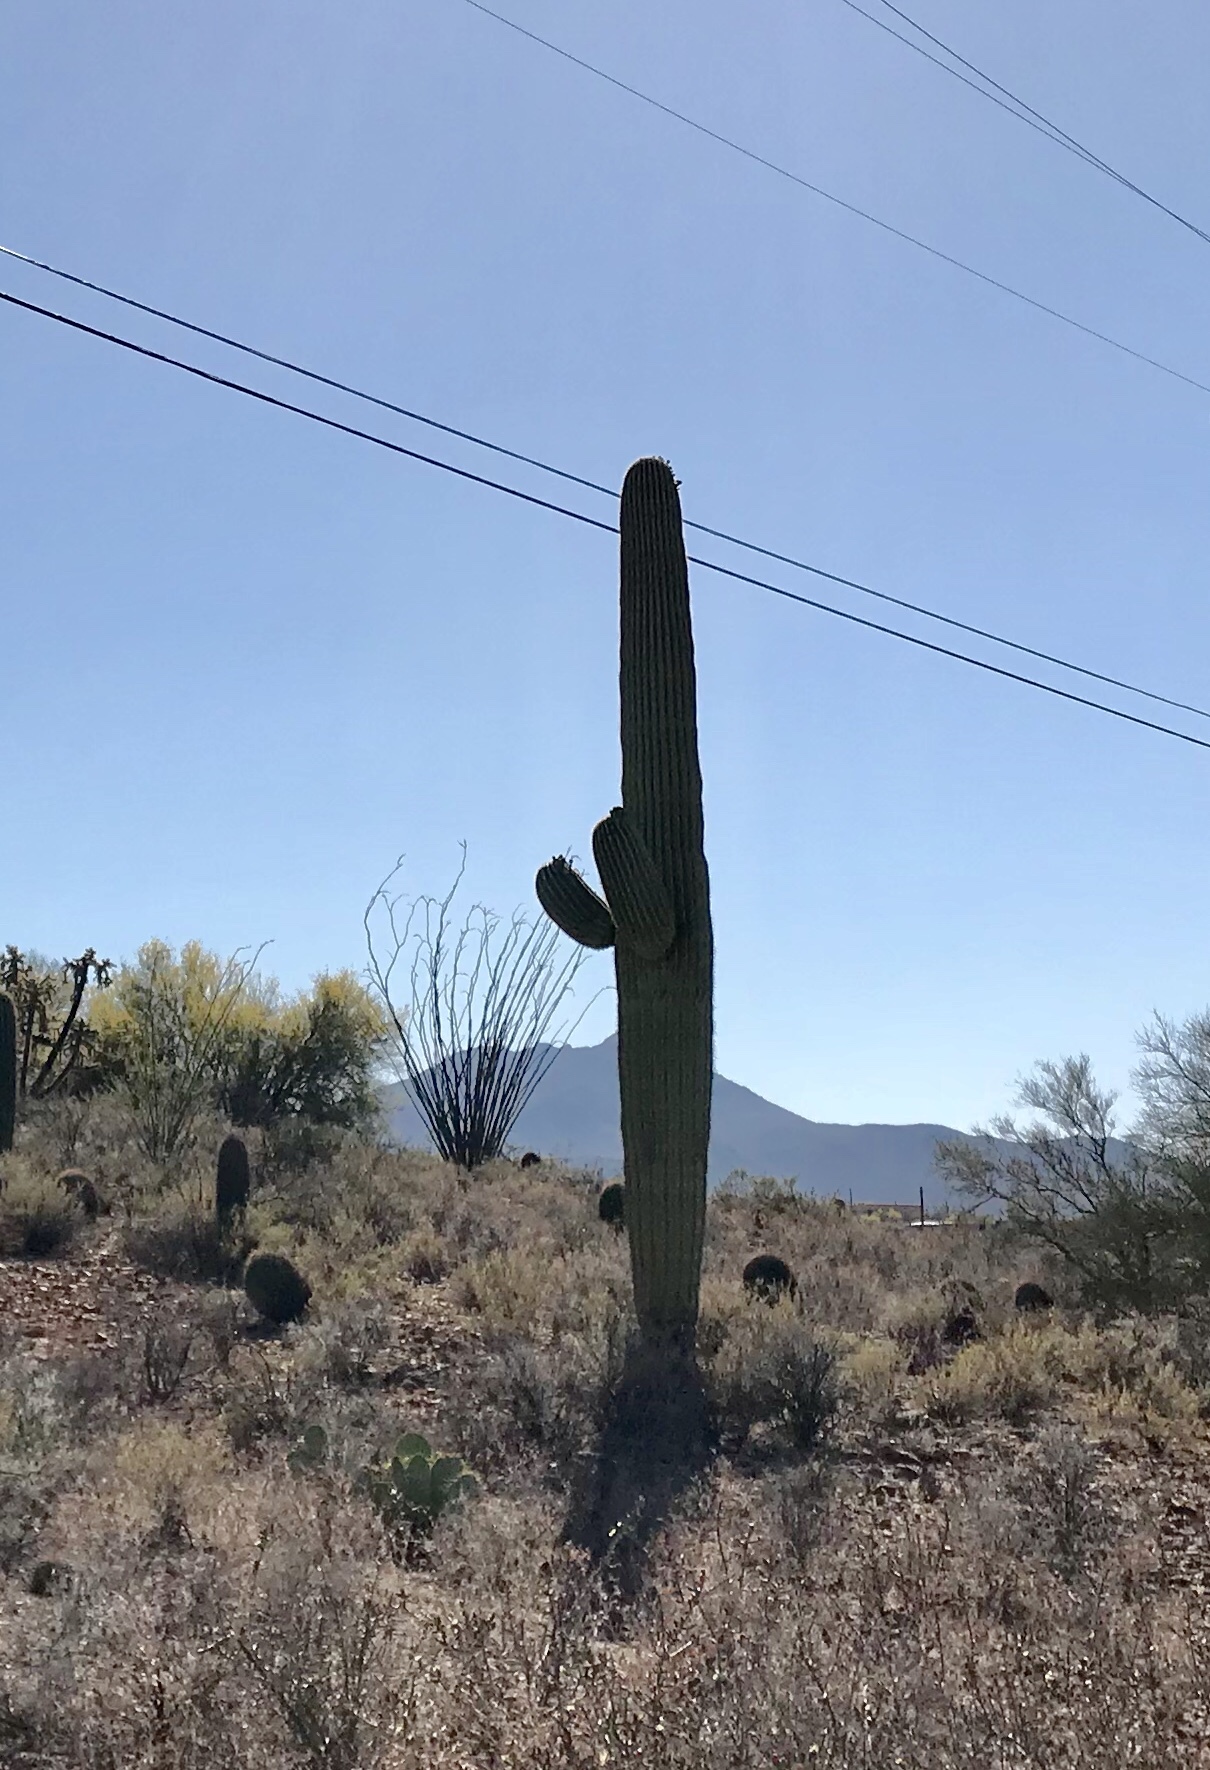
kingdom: Plantae
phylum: Tracheophyta
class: Magnoliopsida
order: Caryophyllales
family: Cactaceae
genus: Carnegiea
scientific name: Carnegiea gigantea
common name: Saguaro
